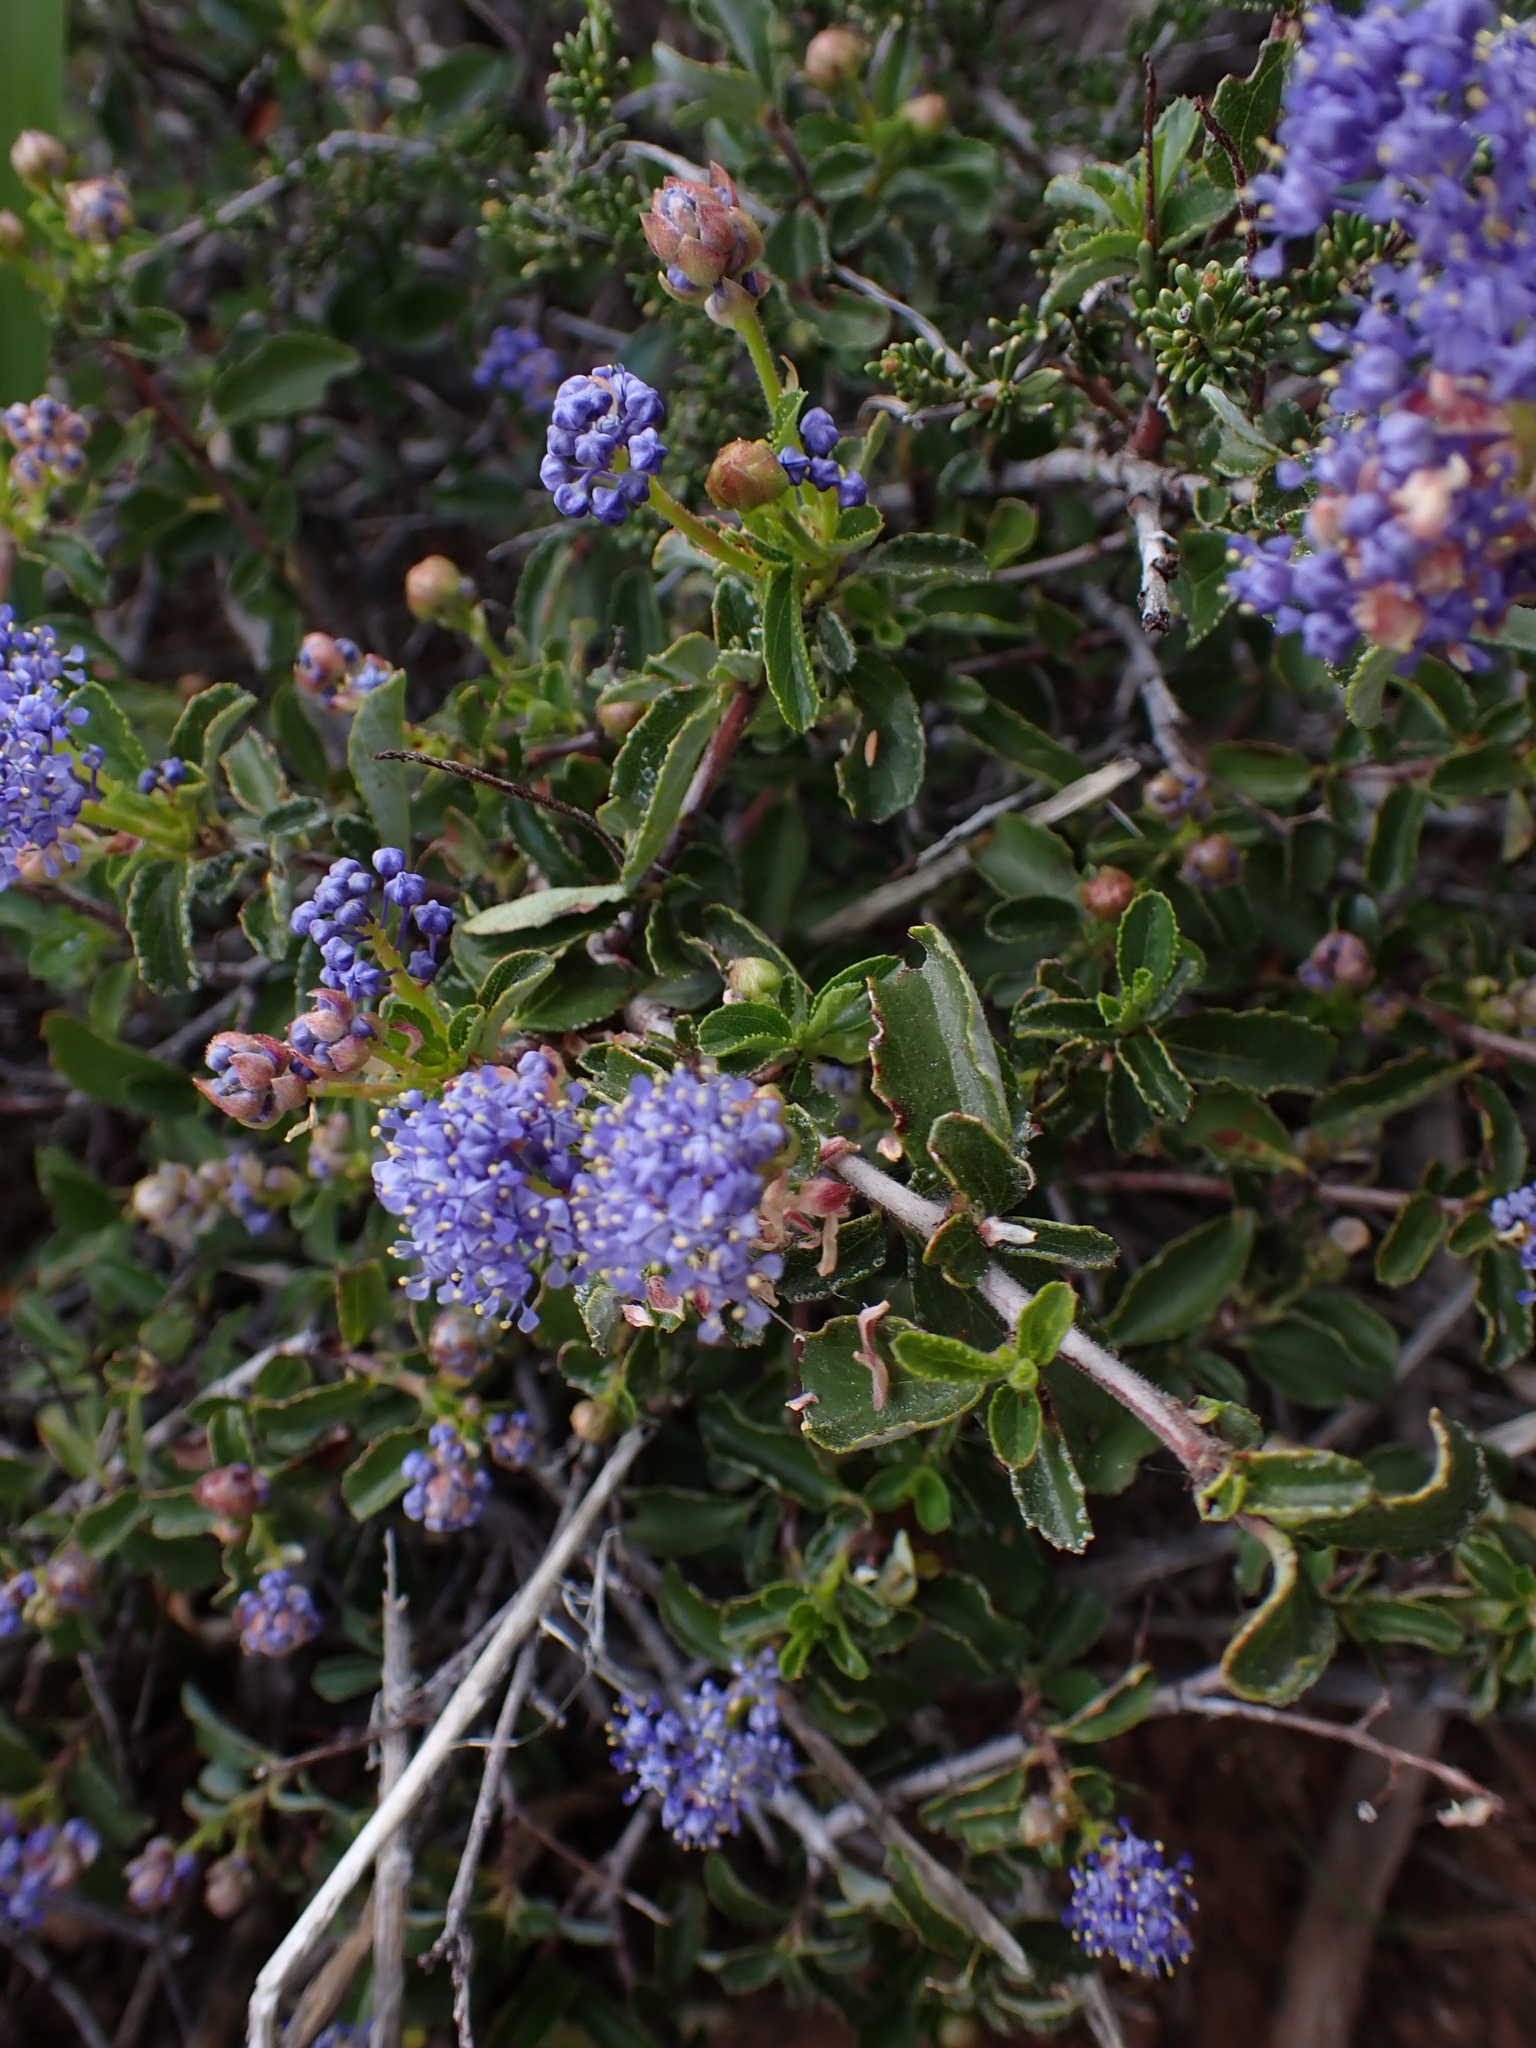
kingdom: Plantae
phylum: Tracheophyta
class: Magnoliopsida
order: Rosales
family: Rhamnaceae
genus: Ceanothus
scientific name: Ceanothus foliosus
